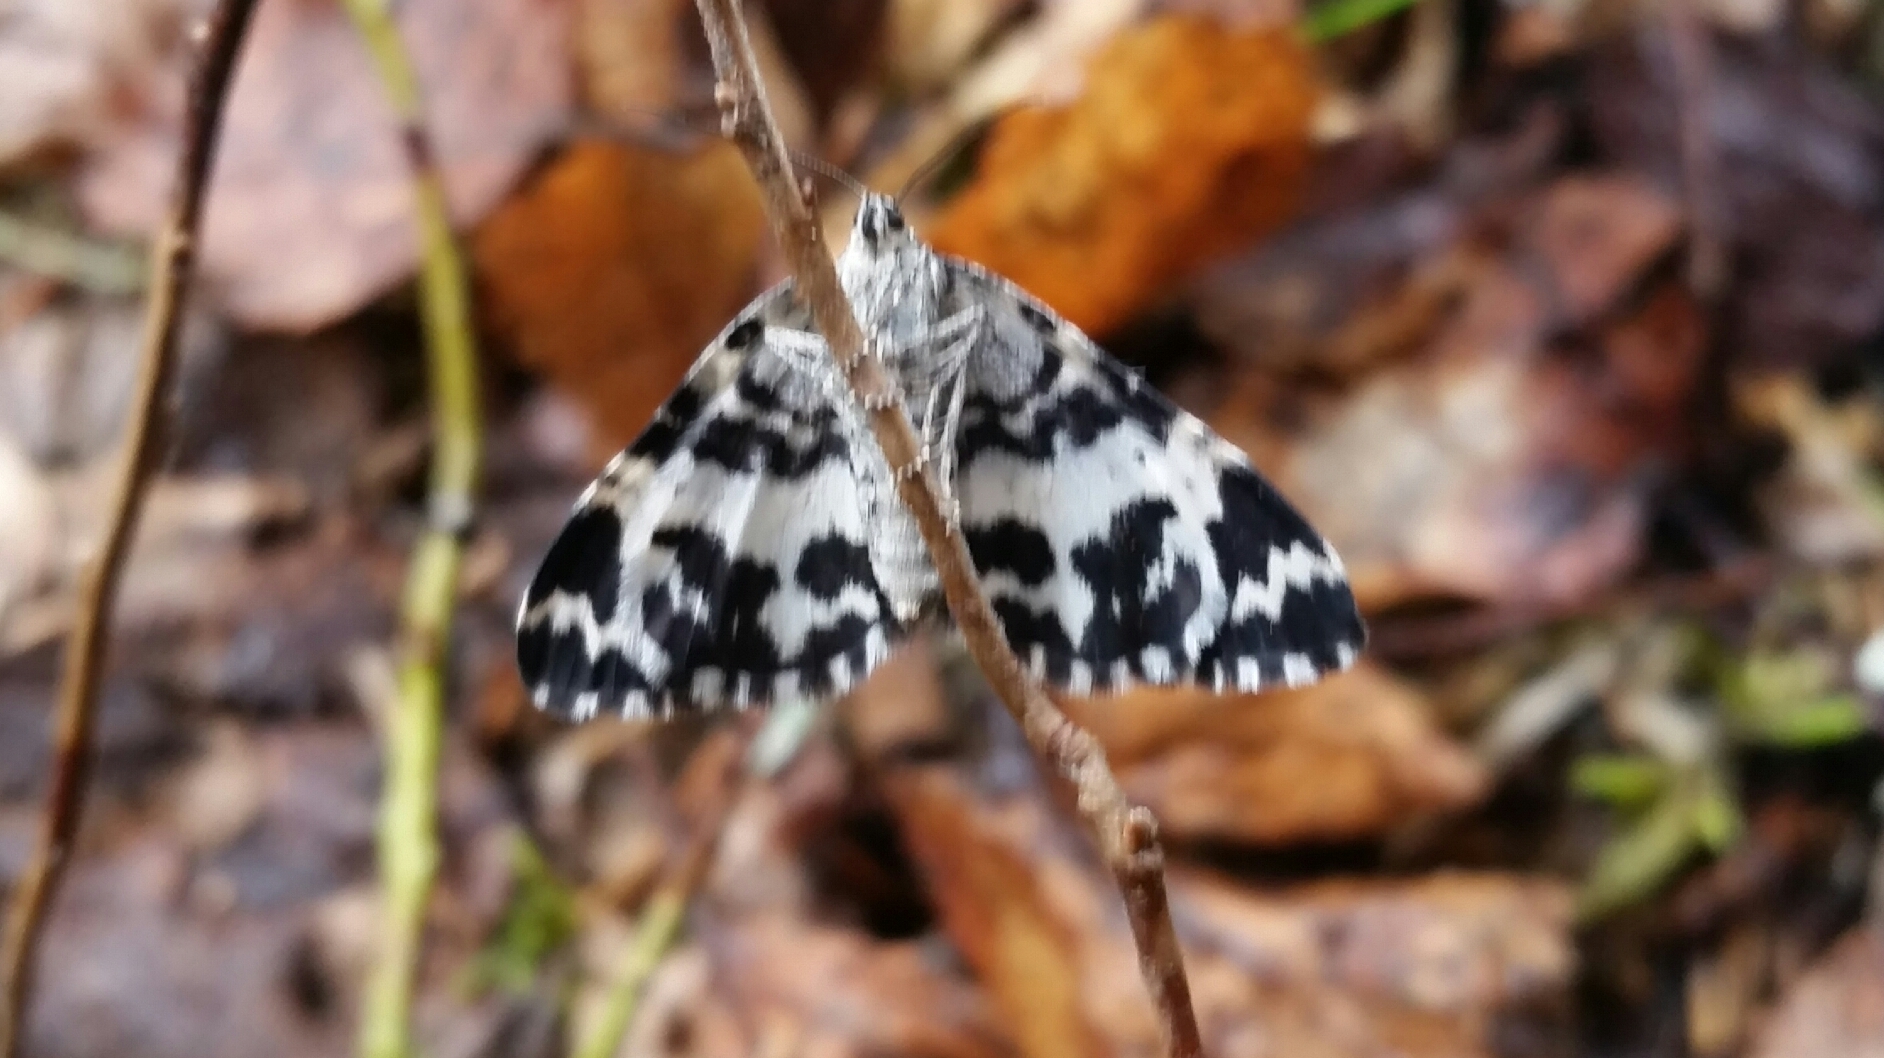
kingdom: Animalia
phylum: Arthropoda
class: Insecta
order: Lepidoptera
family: Geometridae
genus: Rheumaptera
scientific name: Rheumaptera hastata
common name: Argent & sable
